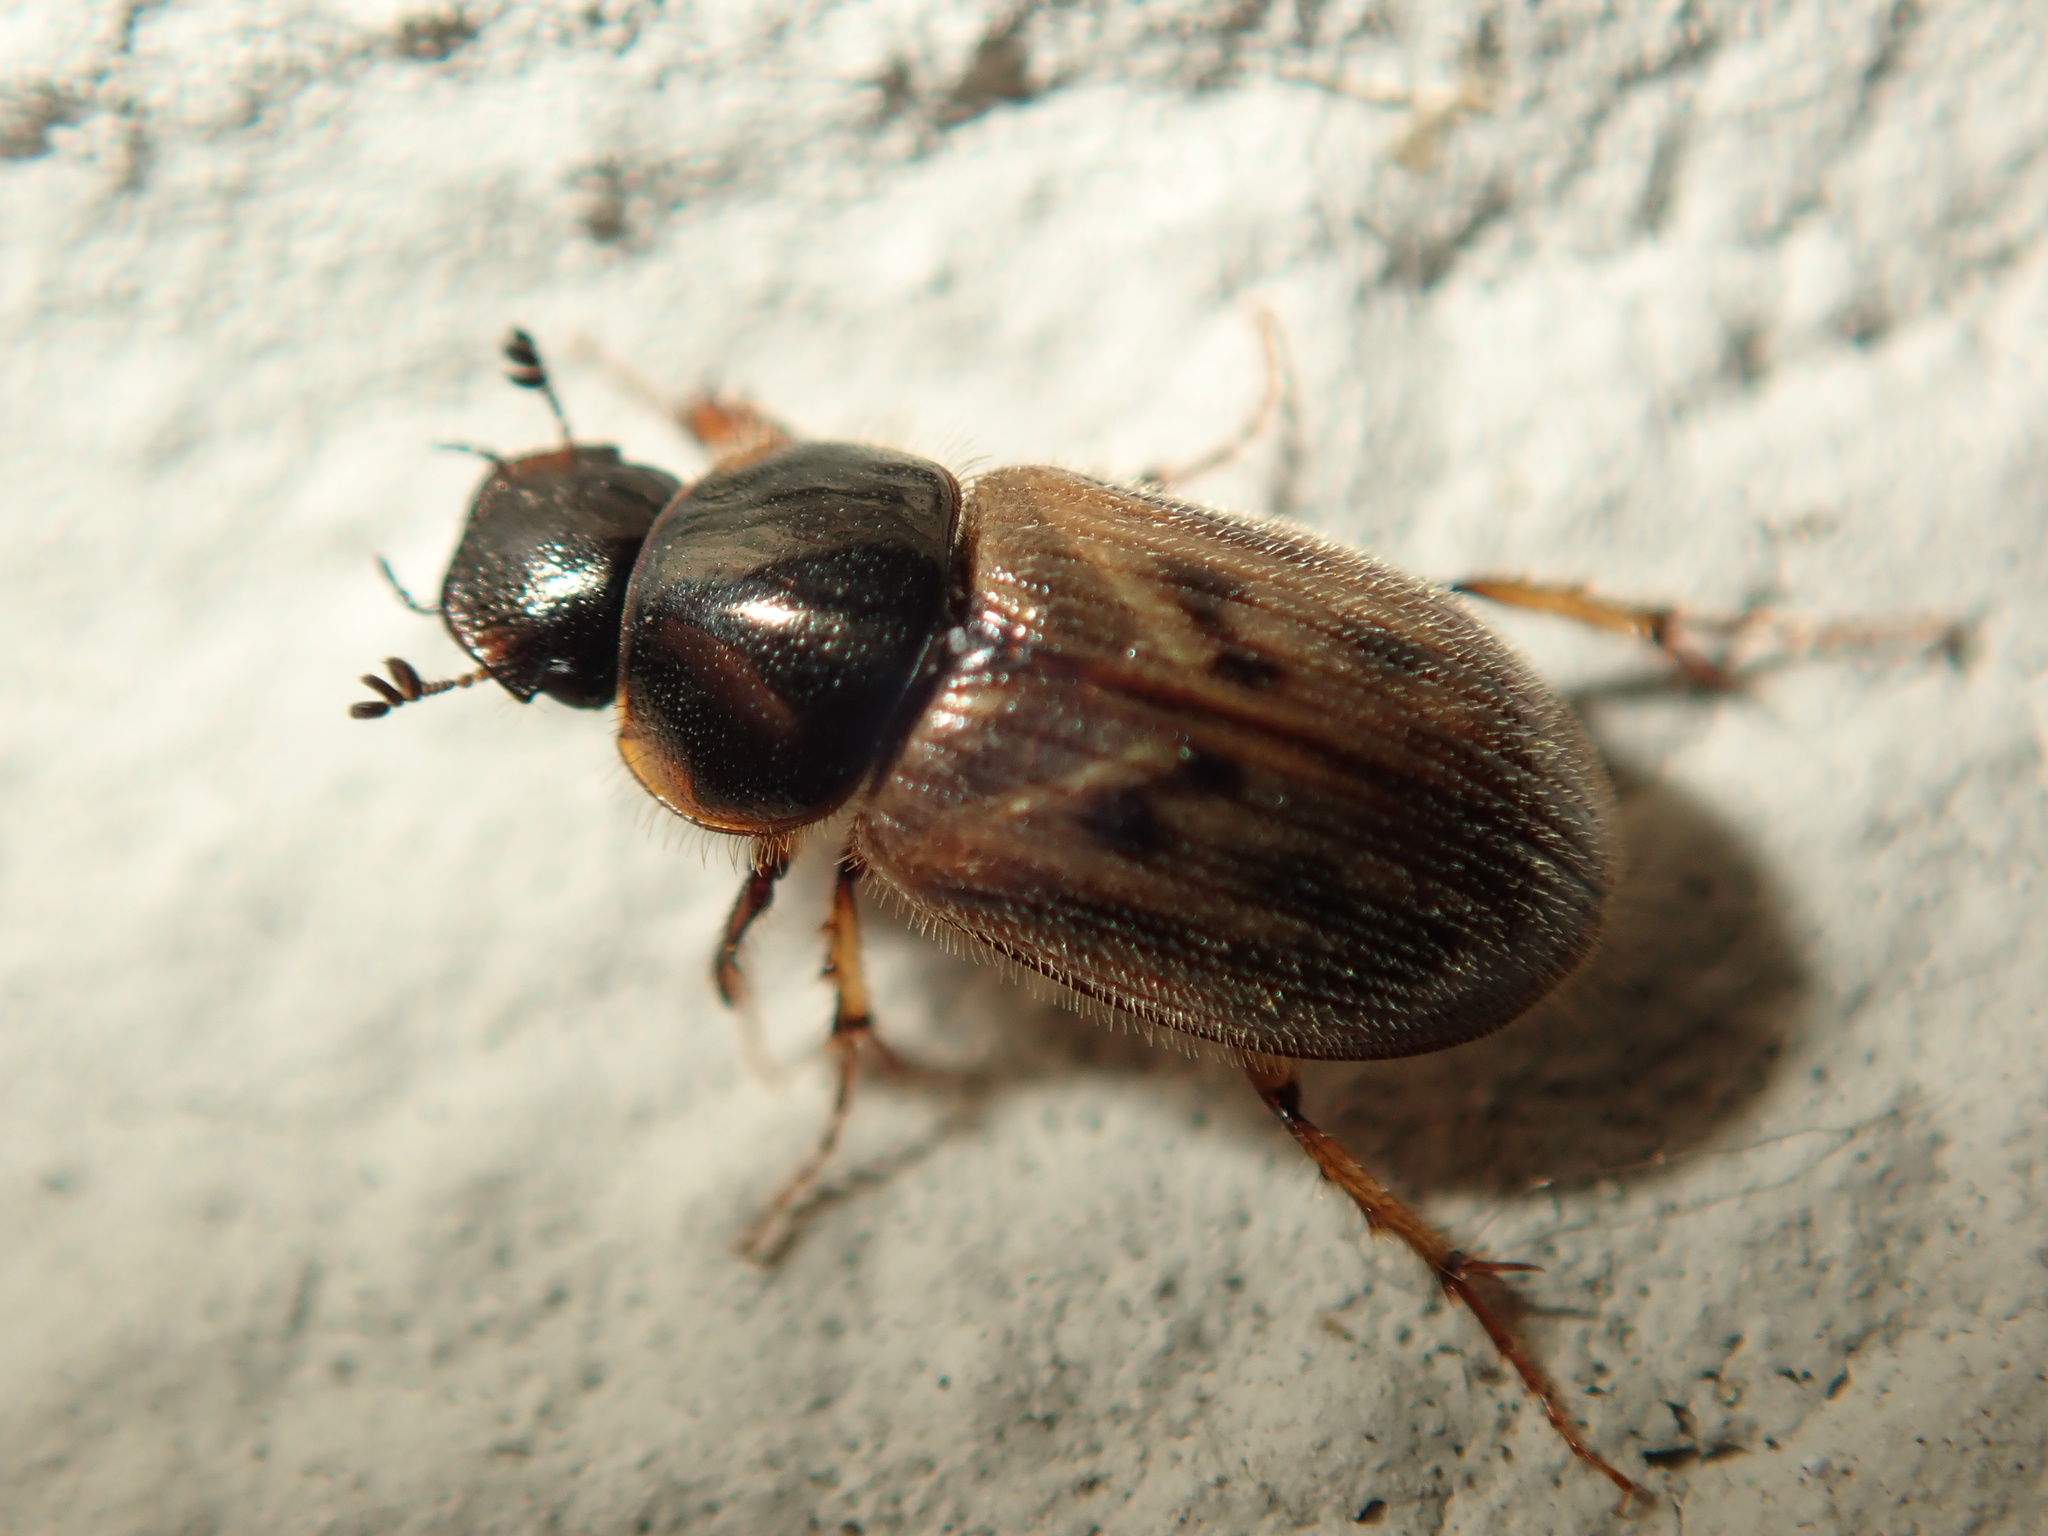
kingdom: Animalia
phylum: Arthropoda
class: Insecta
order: Coleoptera
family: Scarabaeidae
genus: Nimbus
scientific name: Nimbus contaminatus
